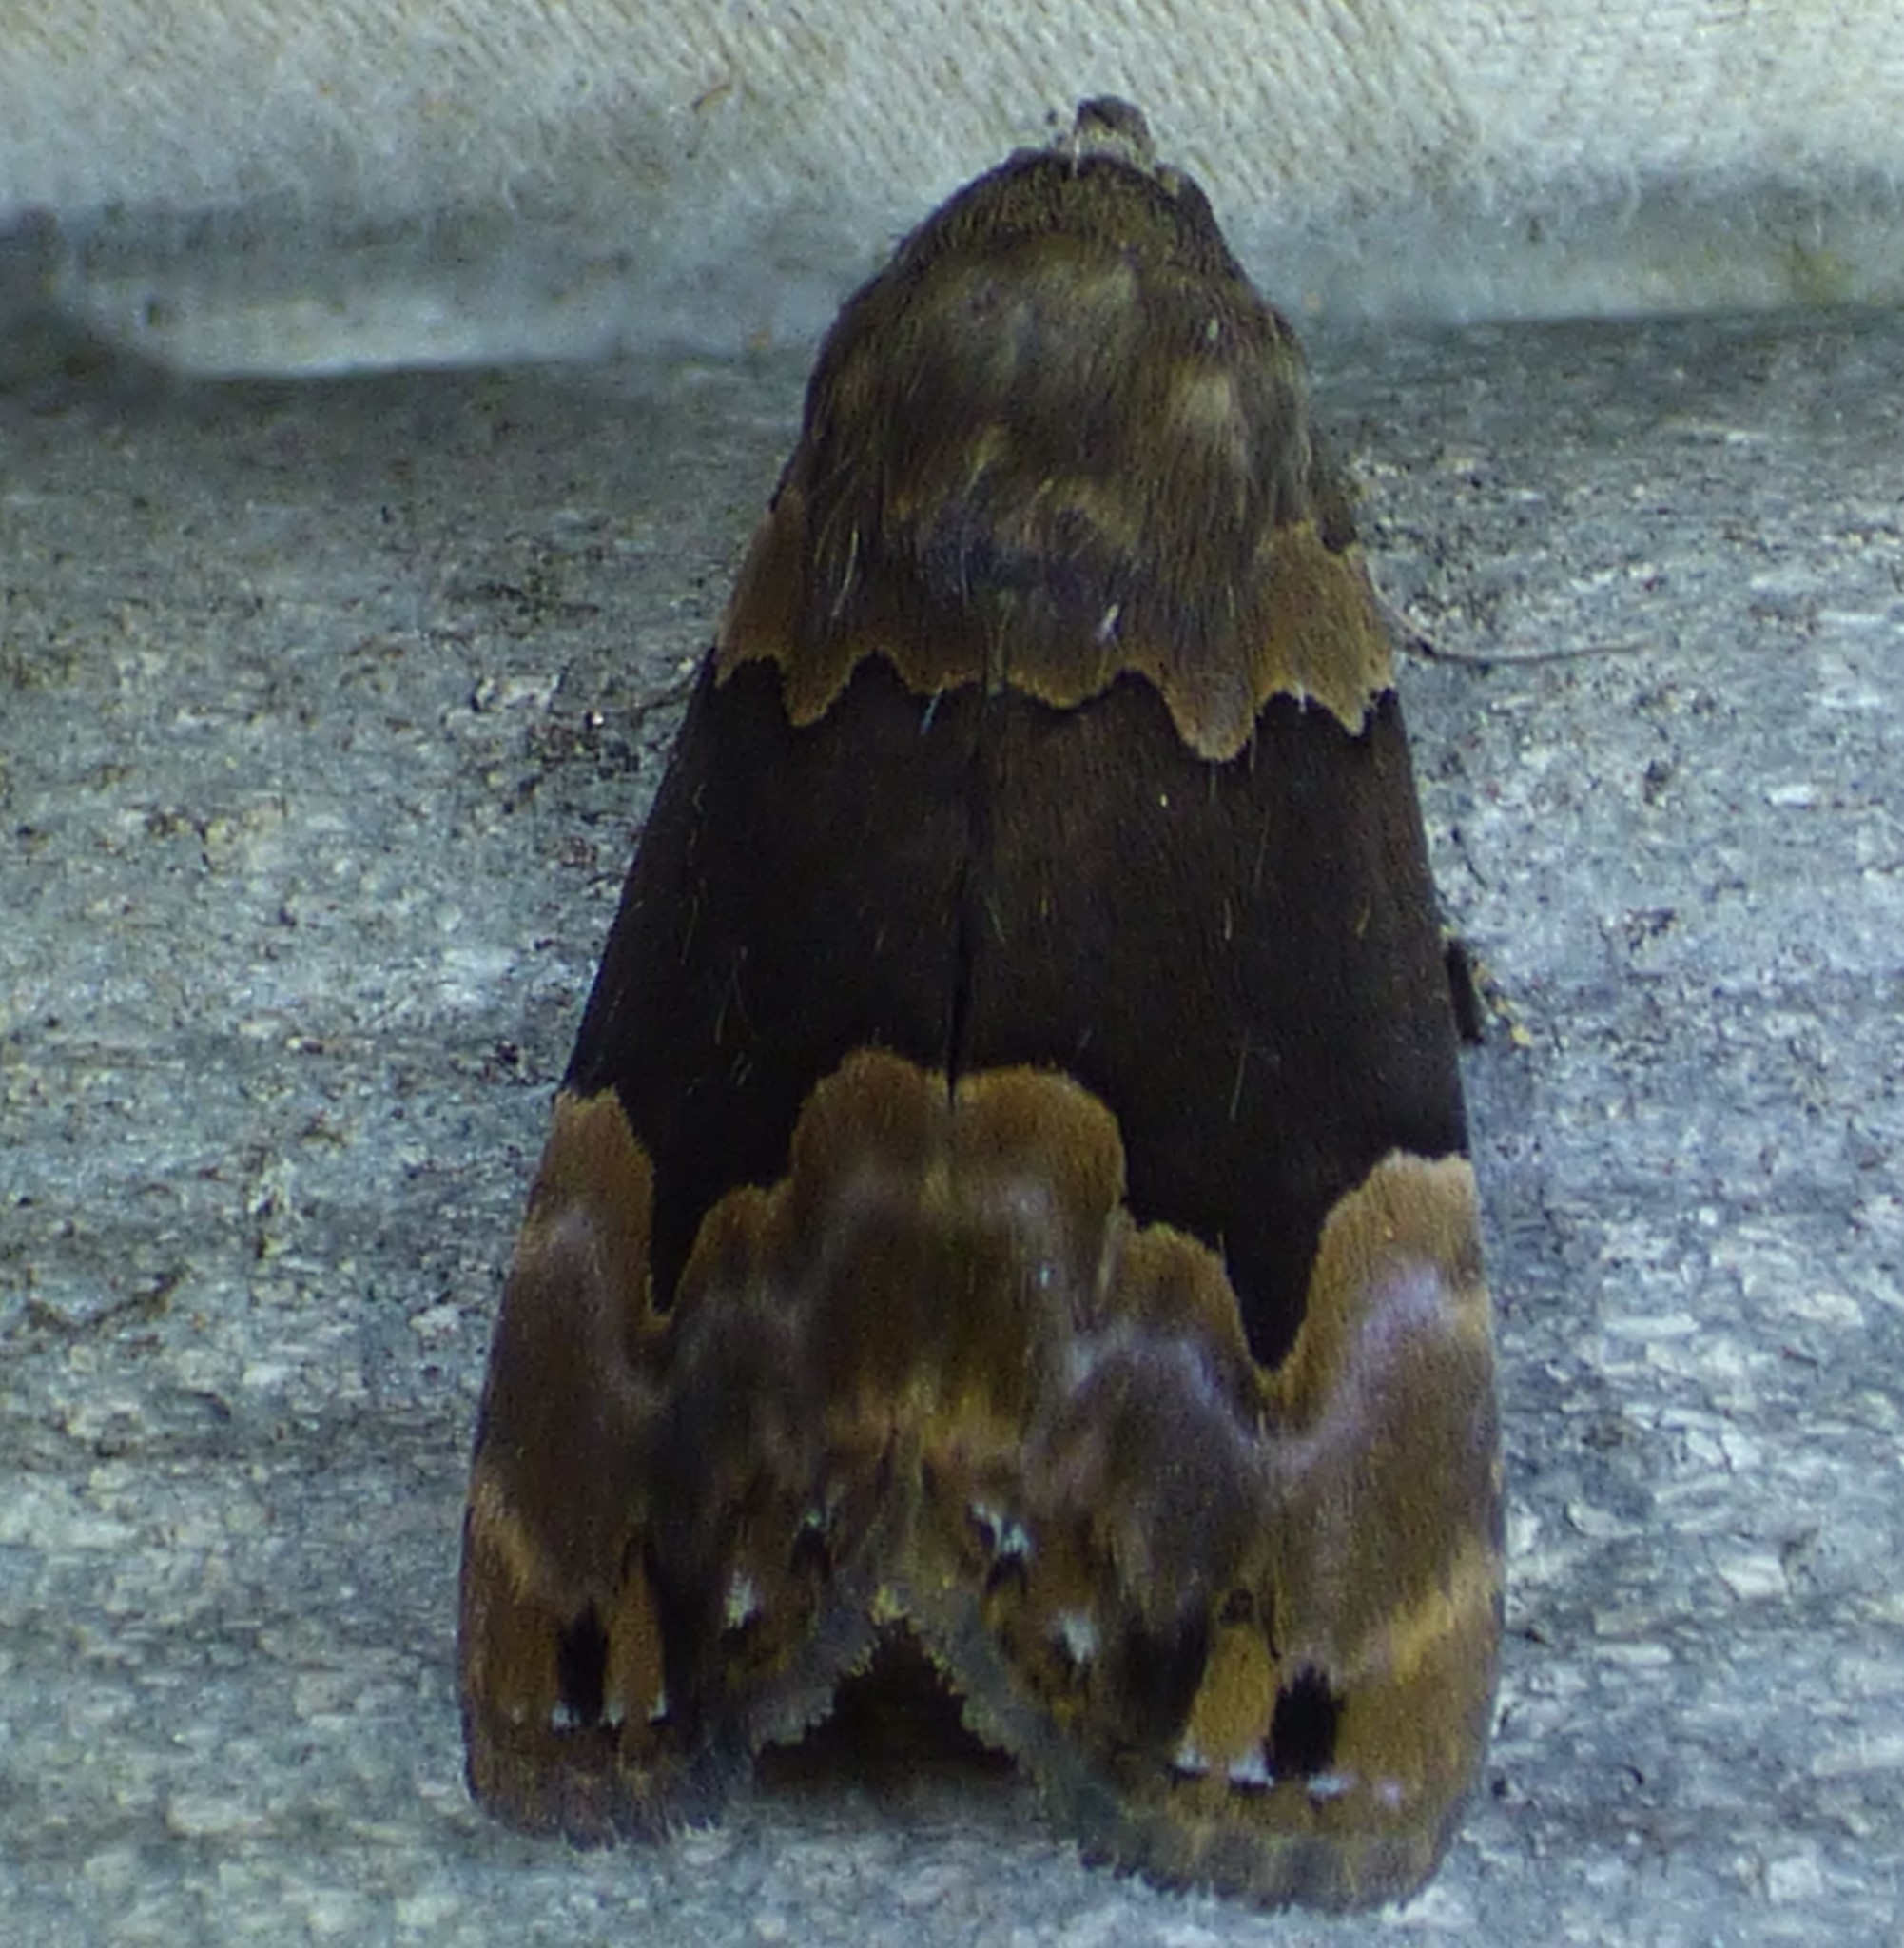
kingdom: Animalia
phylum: Arthropoda
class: Insecta
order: Lepidoptera
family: Erebidae
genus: Dinumma
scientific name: Dinumma deponens
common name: Purplish moth
